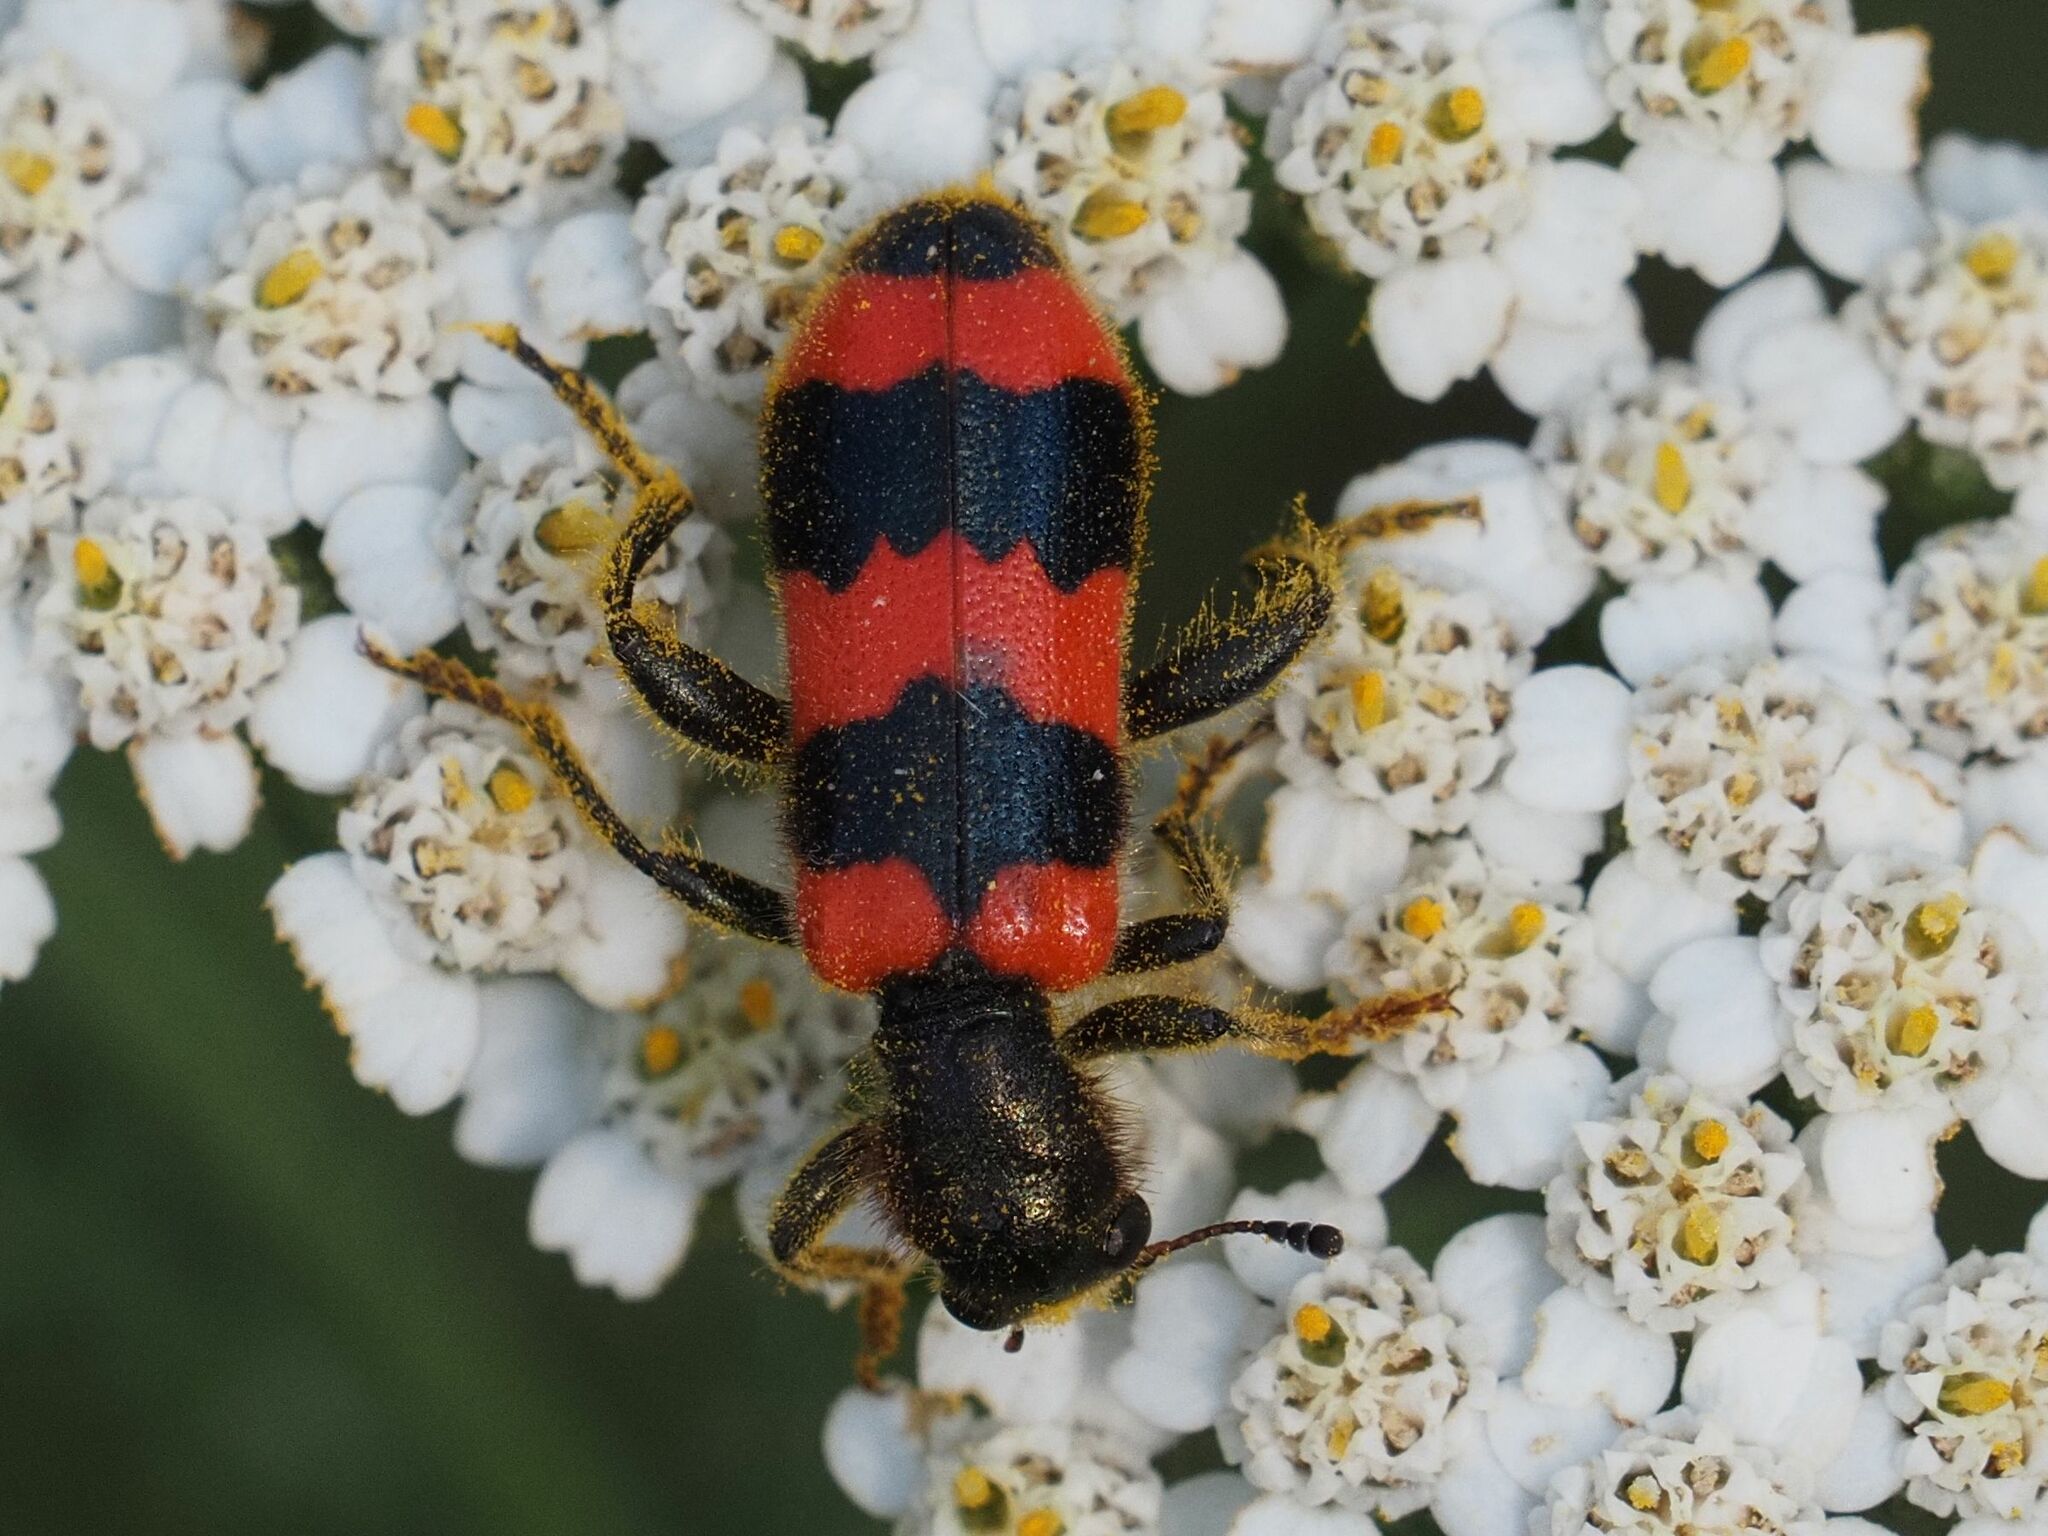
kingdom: Animalia
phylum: Arthropoda
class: Insecta
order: Coleoptera
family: Cleridae
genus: Trichodes
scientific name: Trichodes apiarius
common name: Bee-eating beetle
